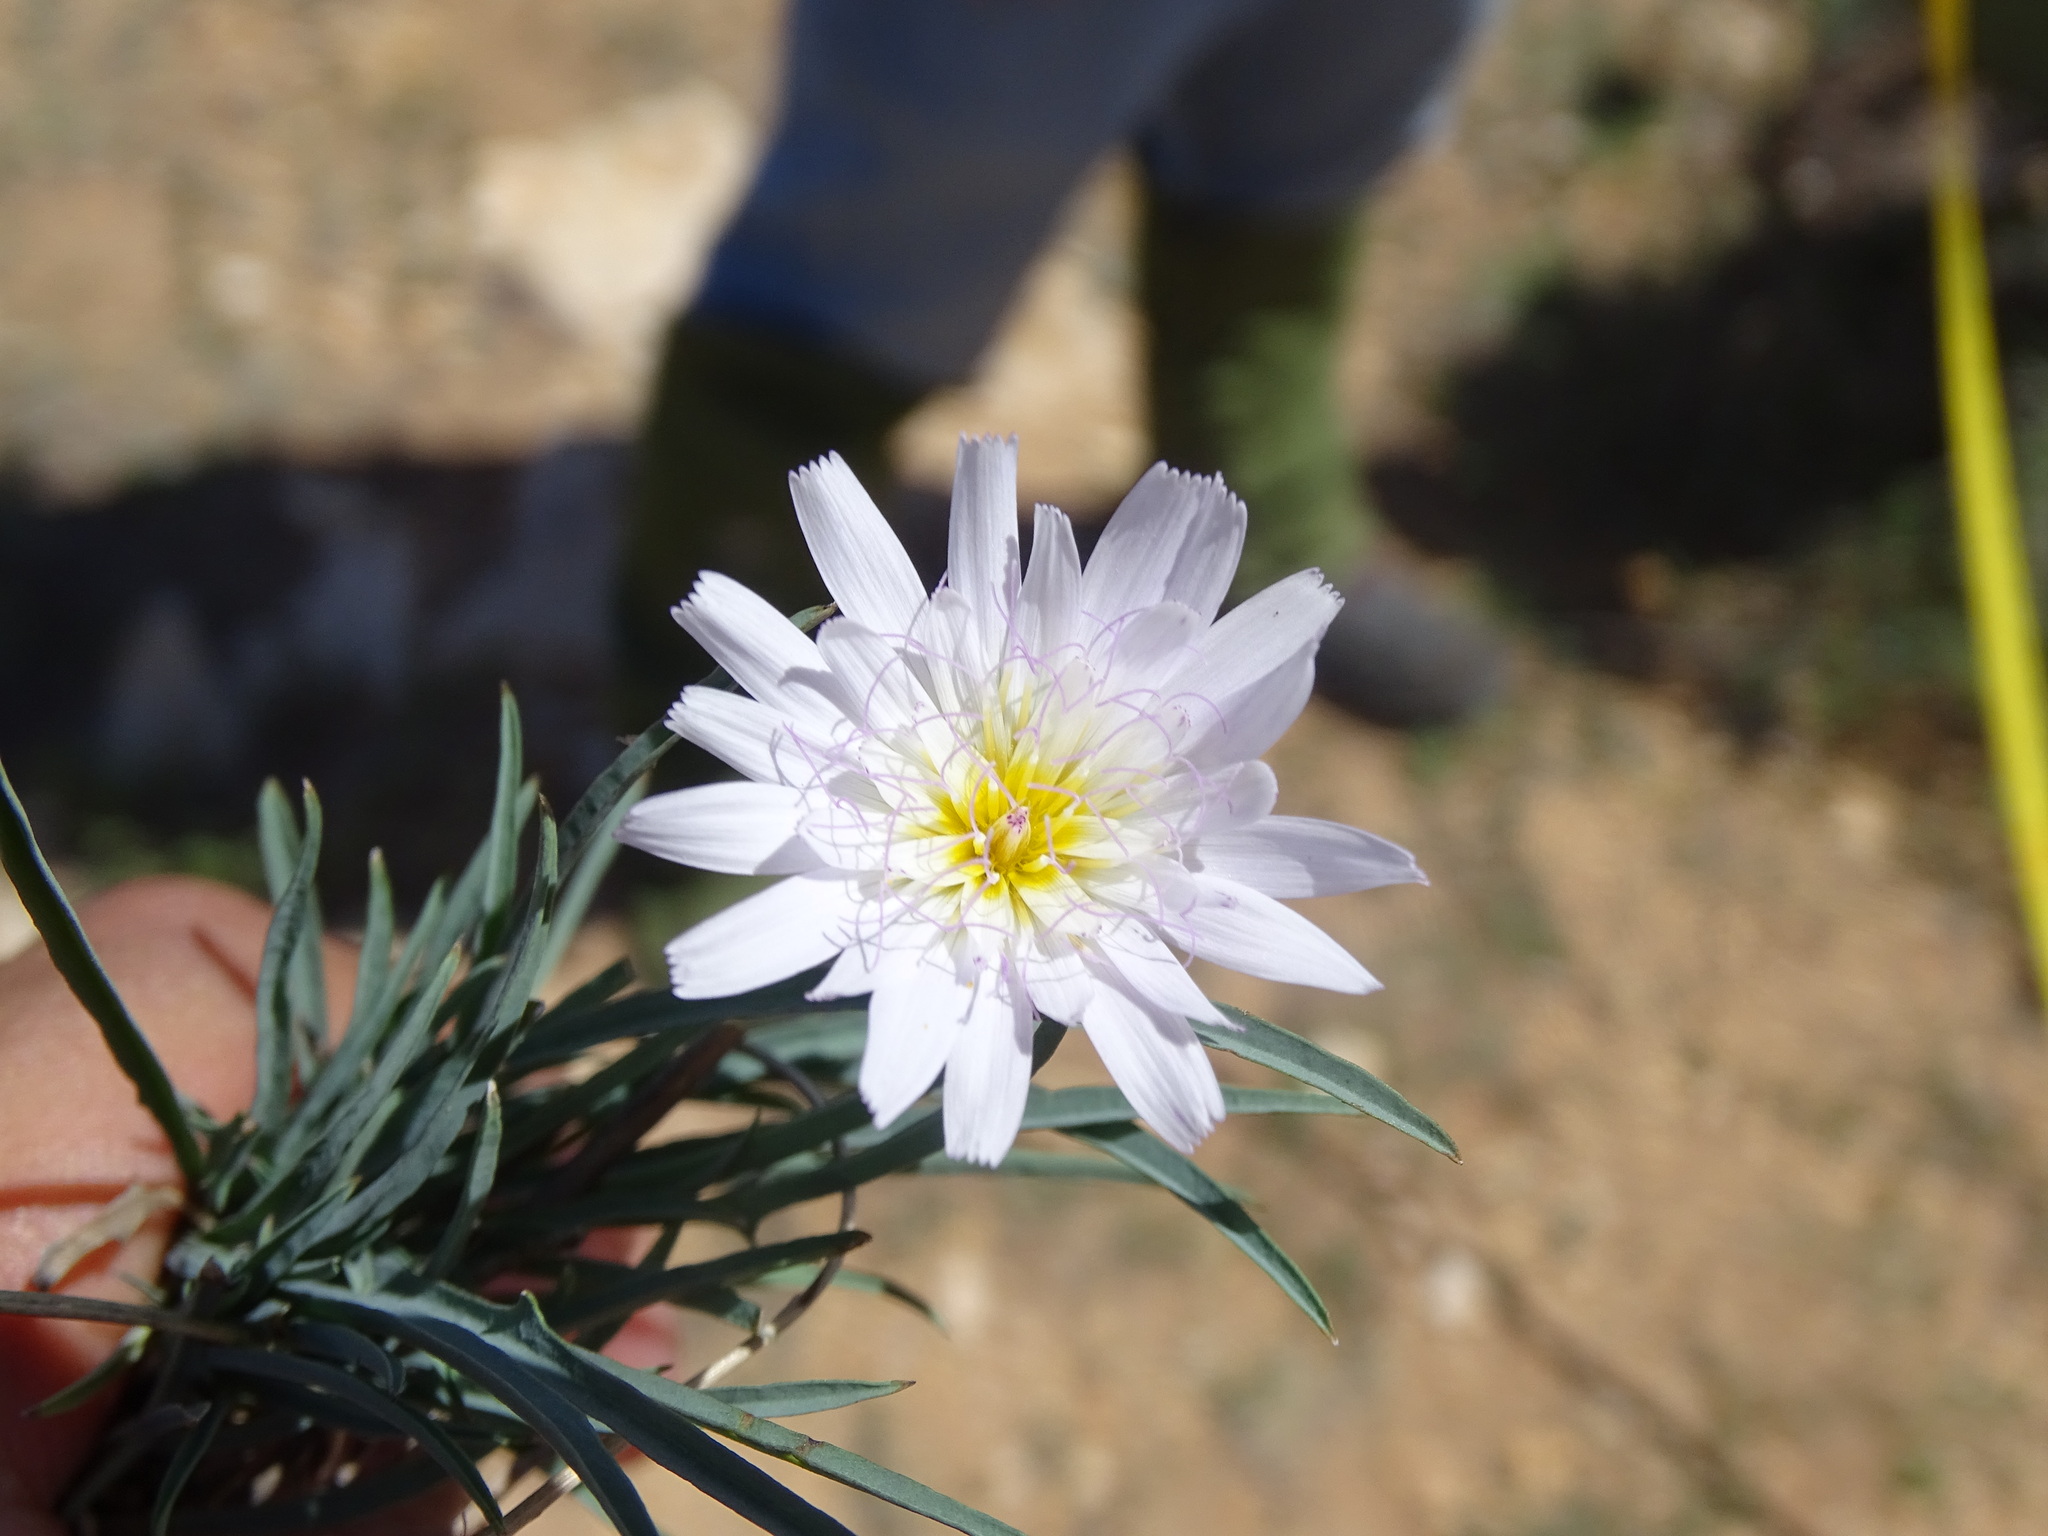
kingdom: Plantae
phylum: Tracheophyta
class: Magnoliopsida
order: Asterales
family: Asteraceae
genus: Pinaropappus
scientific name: Pinaropappus roseus
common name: Rock-lettuce
